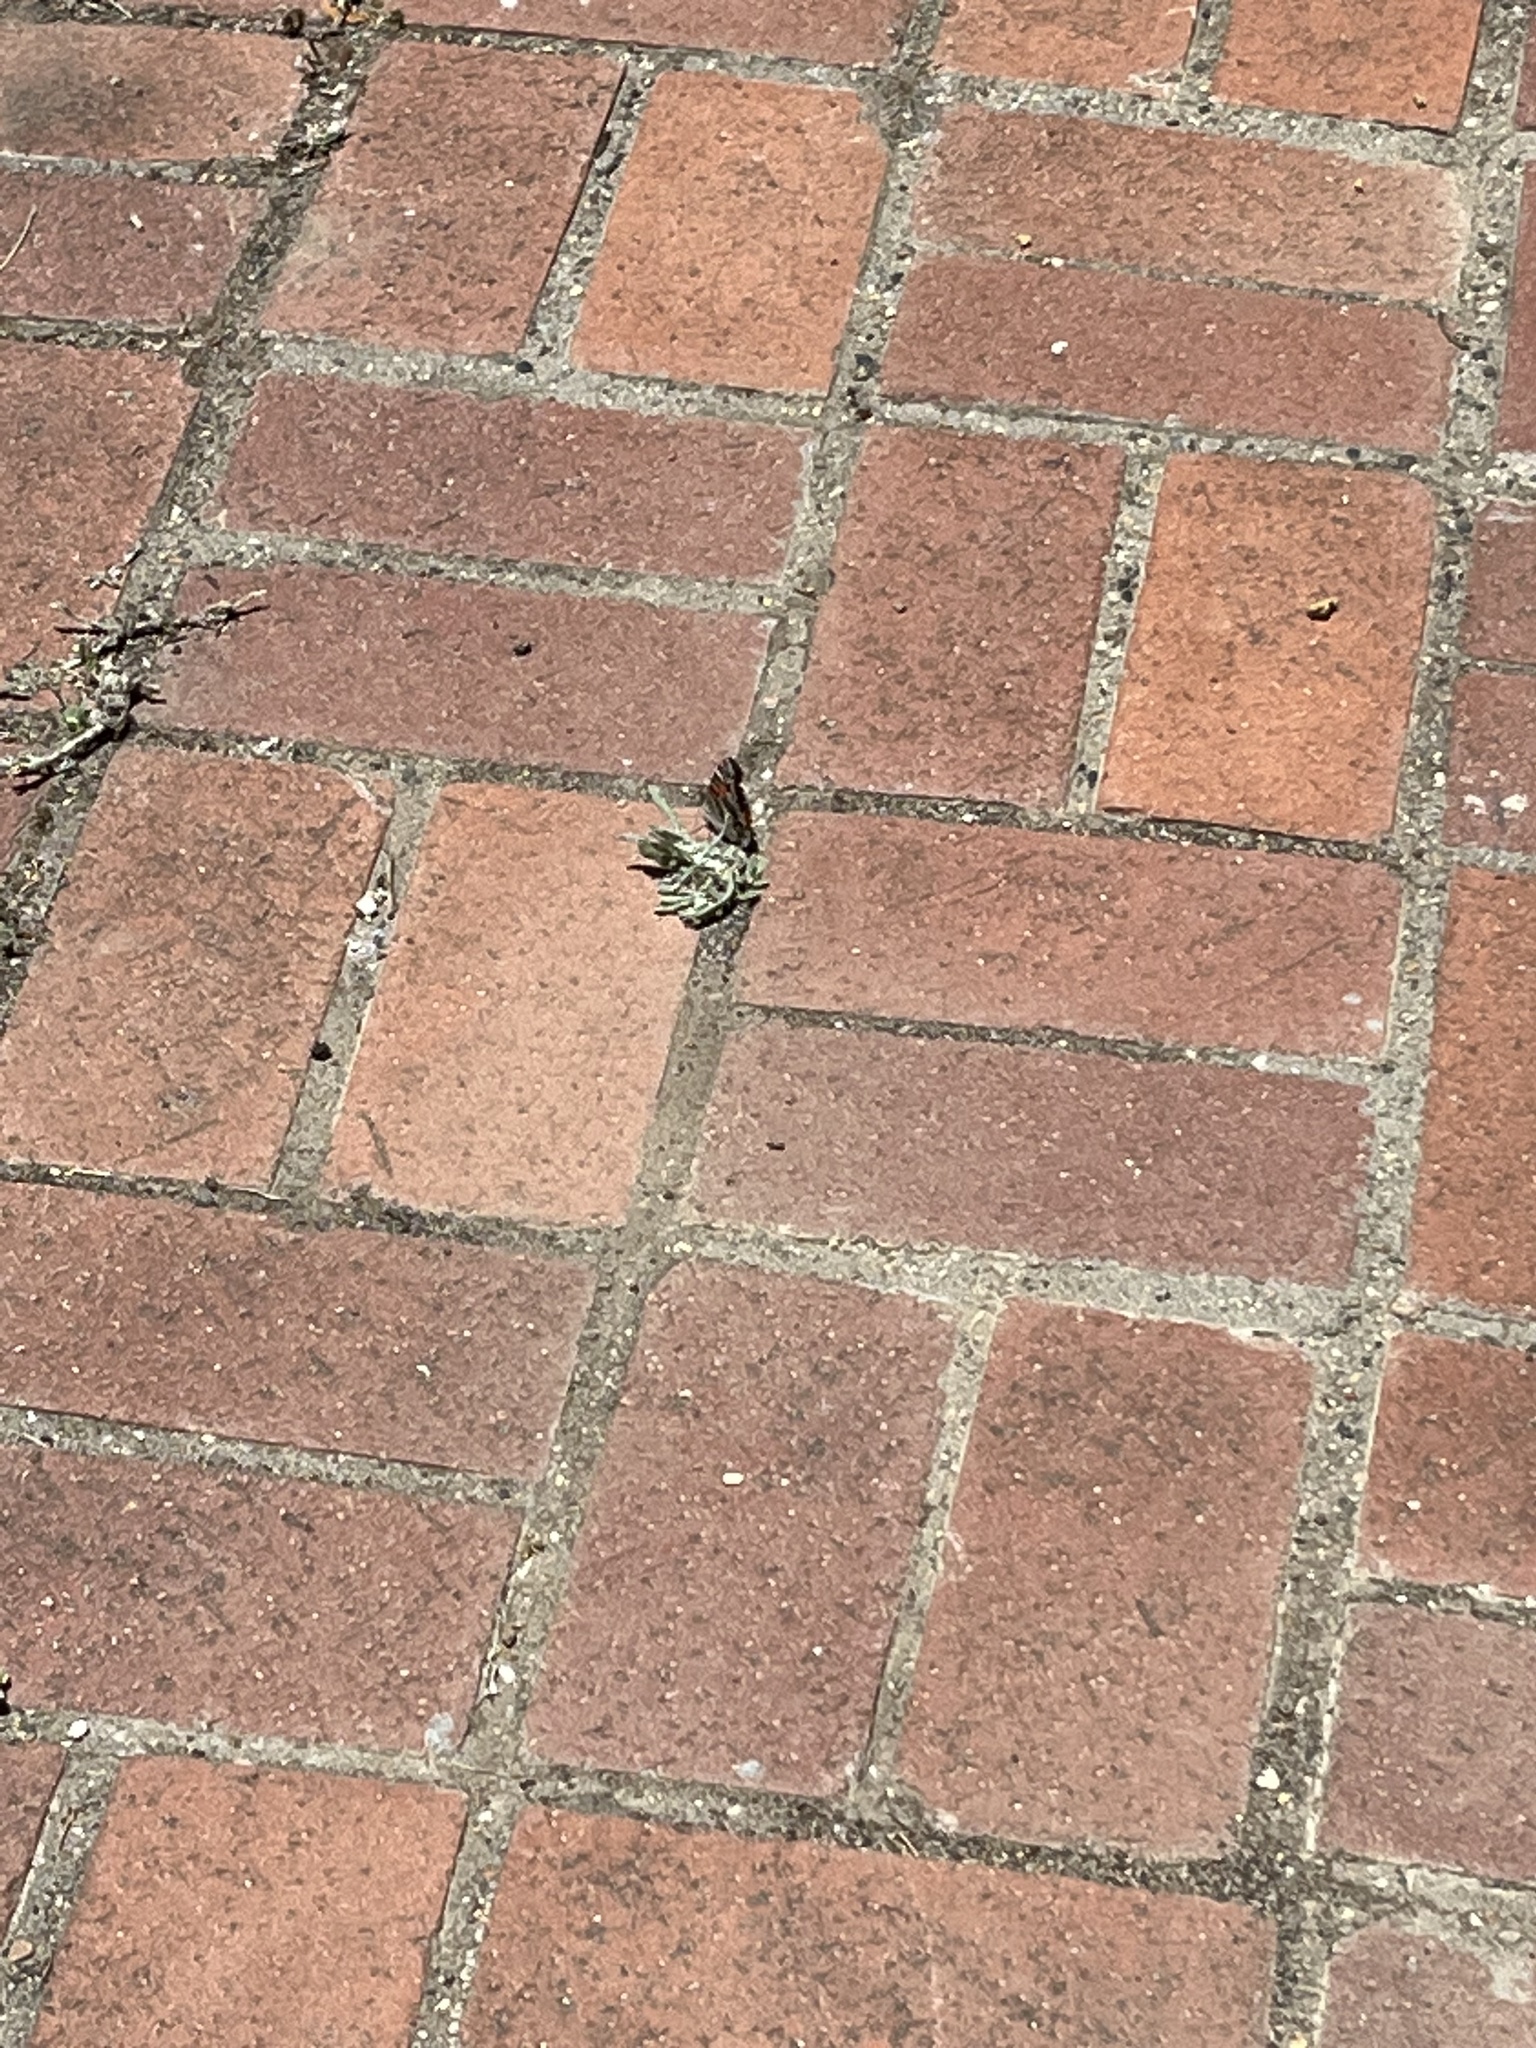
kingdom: Animalia
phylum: Arthropoda
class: Insecta
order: Lepidoptera
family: Nymphalidae
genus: Vanessa
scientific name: Vanessa virginiensis
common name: American lady
